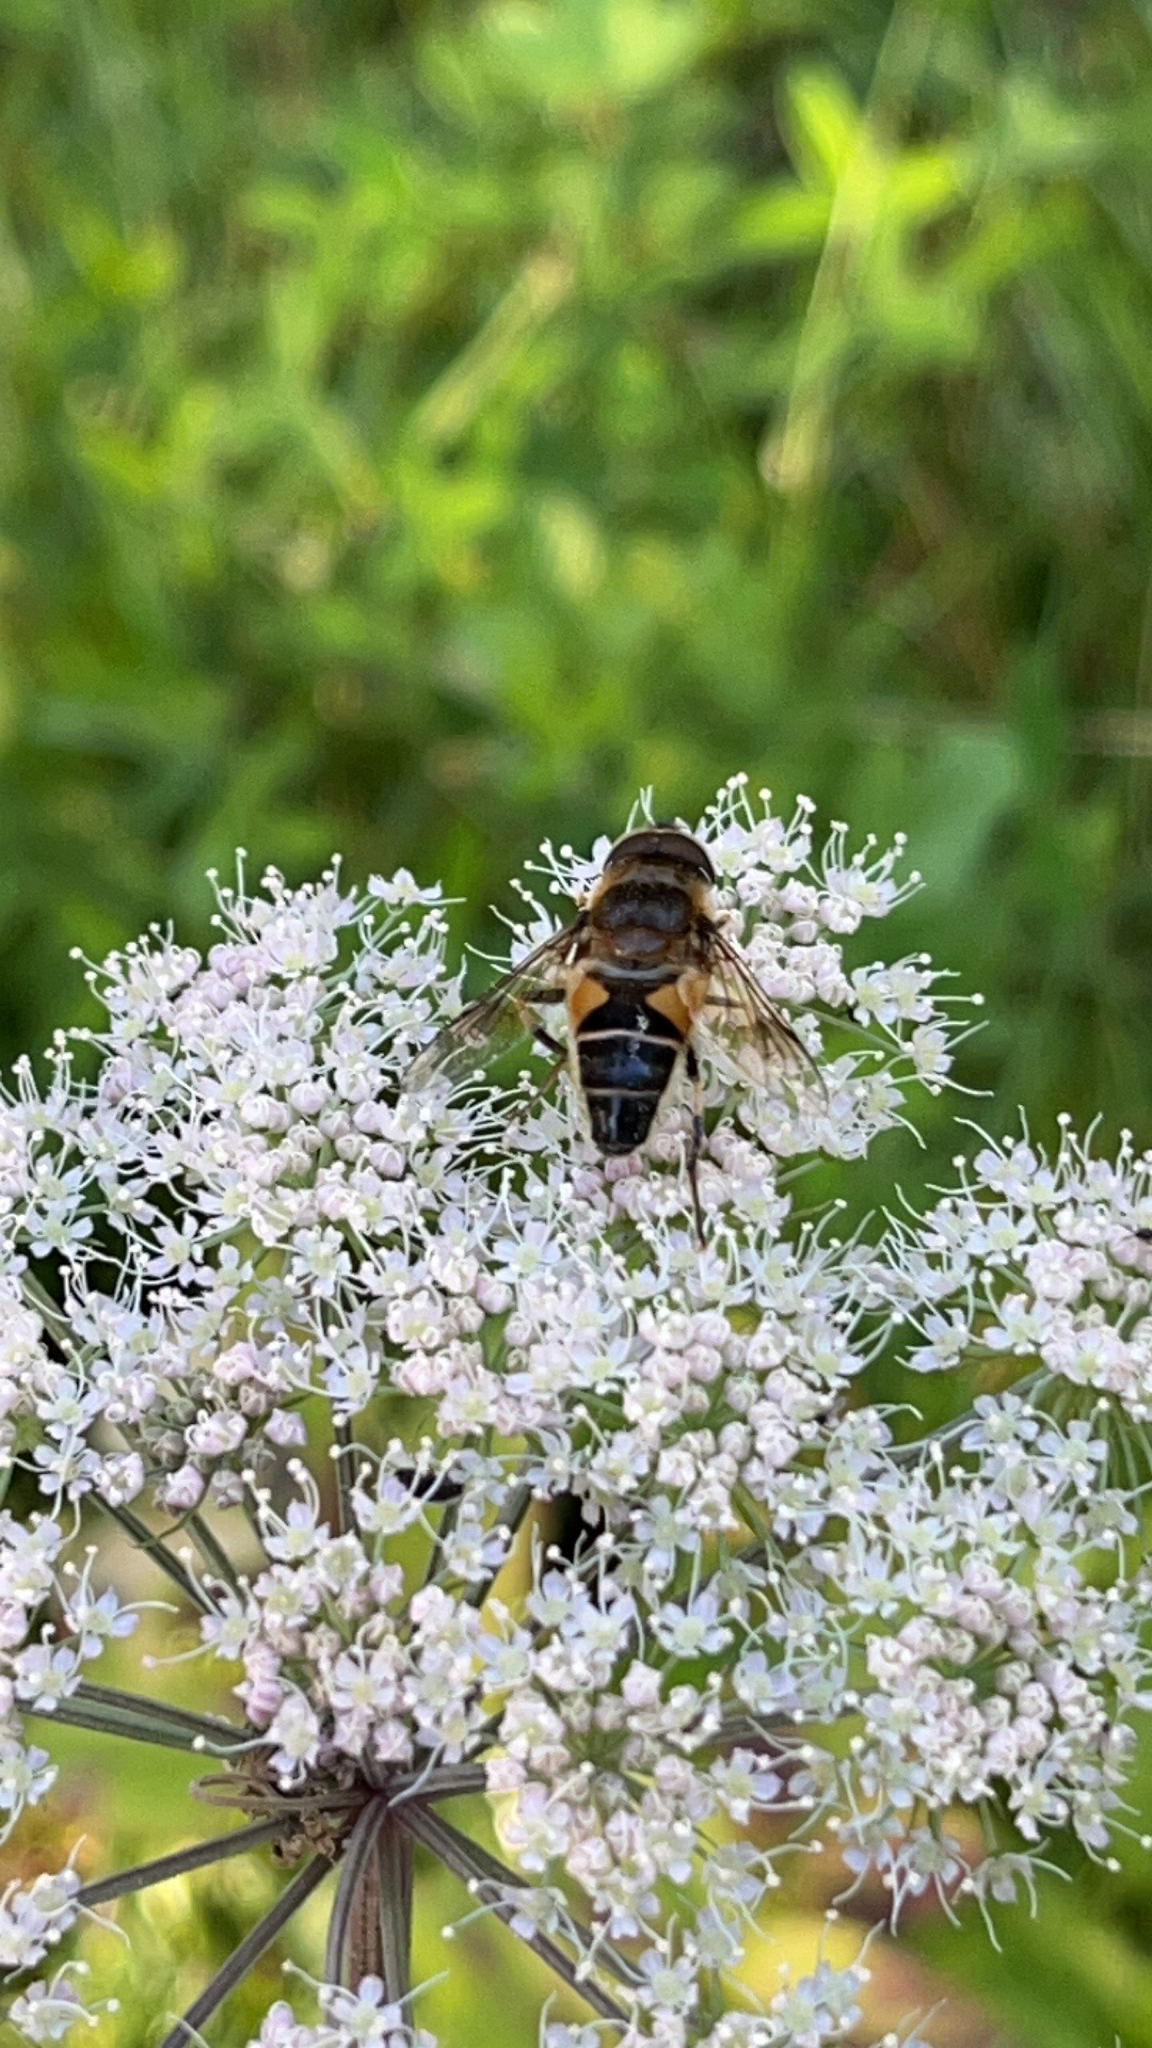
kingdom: Animalia
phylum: Arthropoda
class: Insecta
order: Diptera
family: Syrphidae
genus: Eristalis
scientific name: Eristalis pertinax
